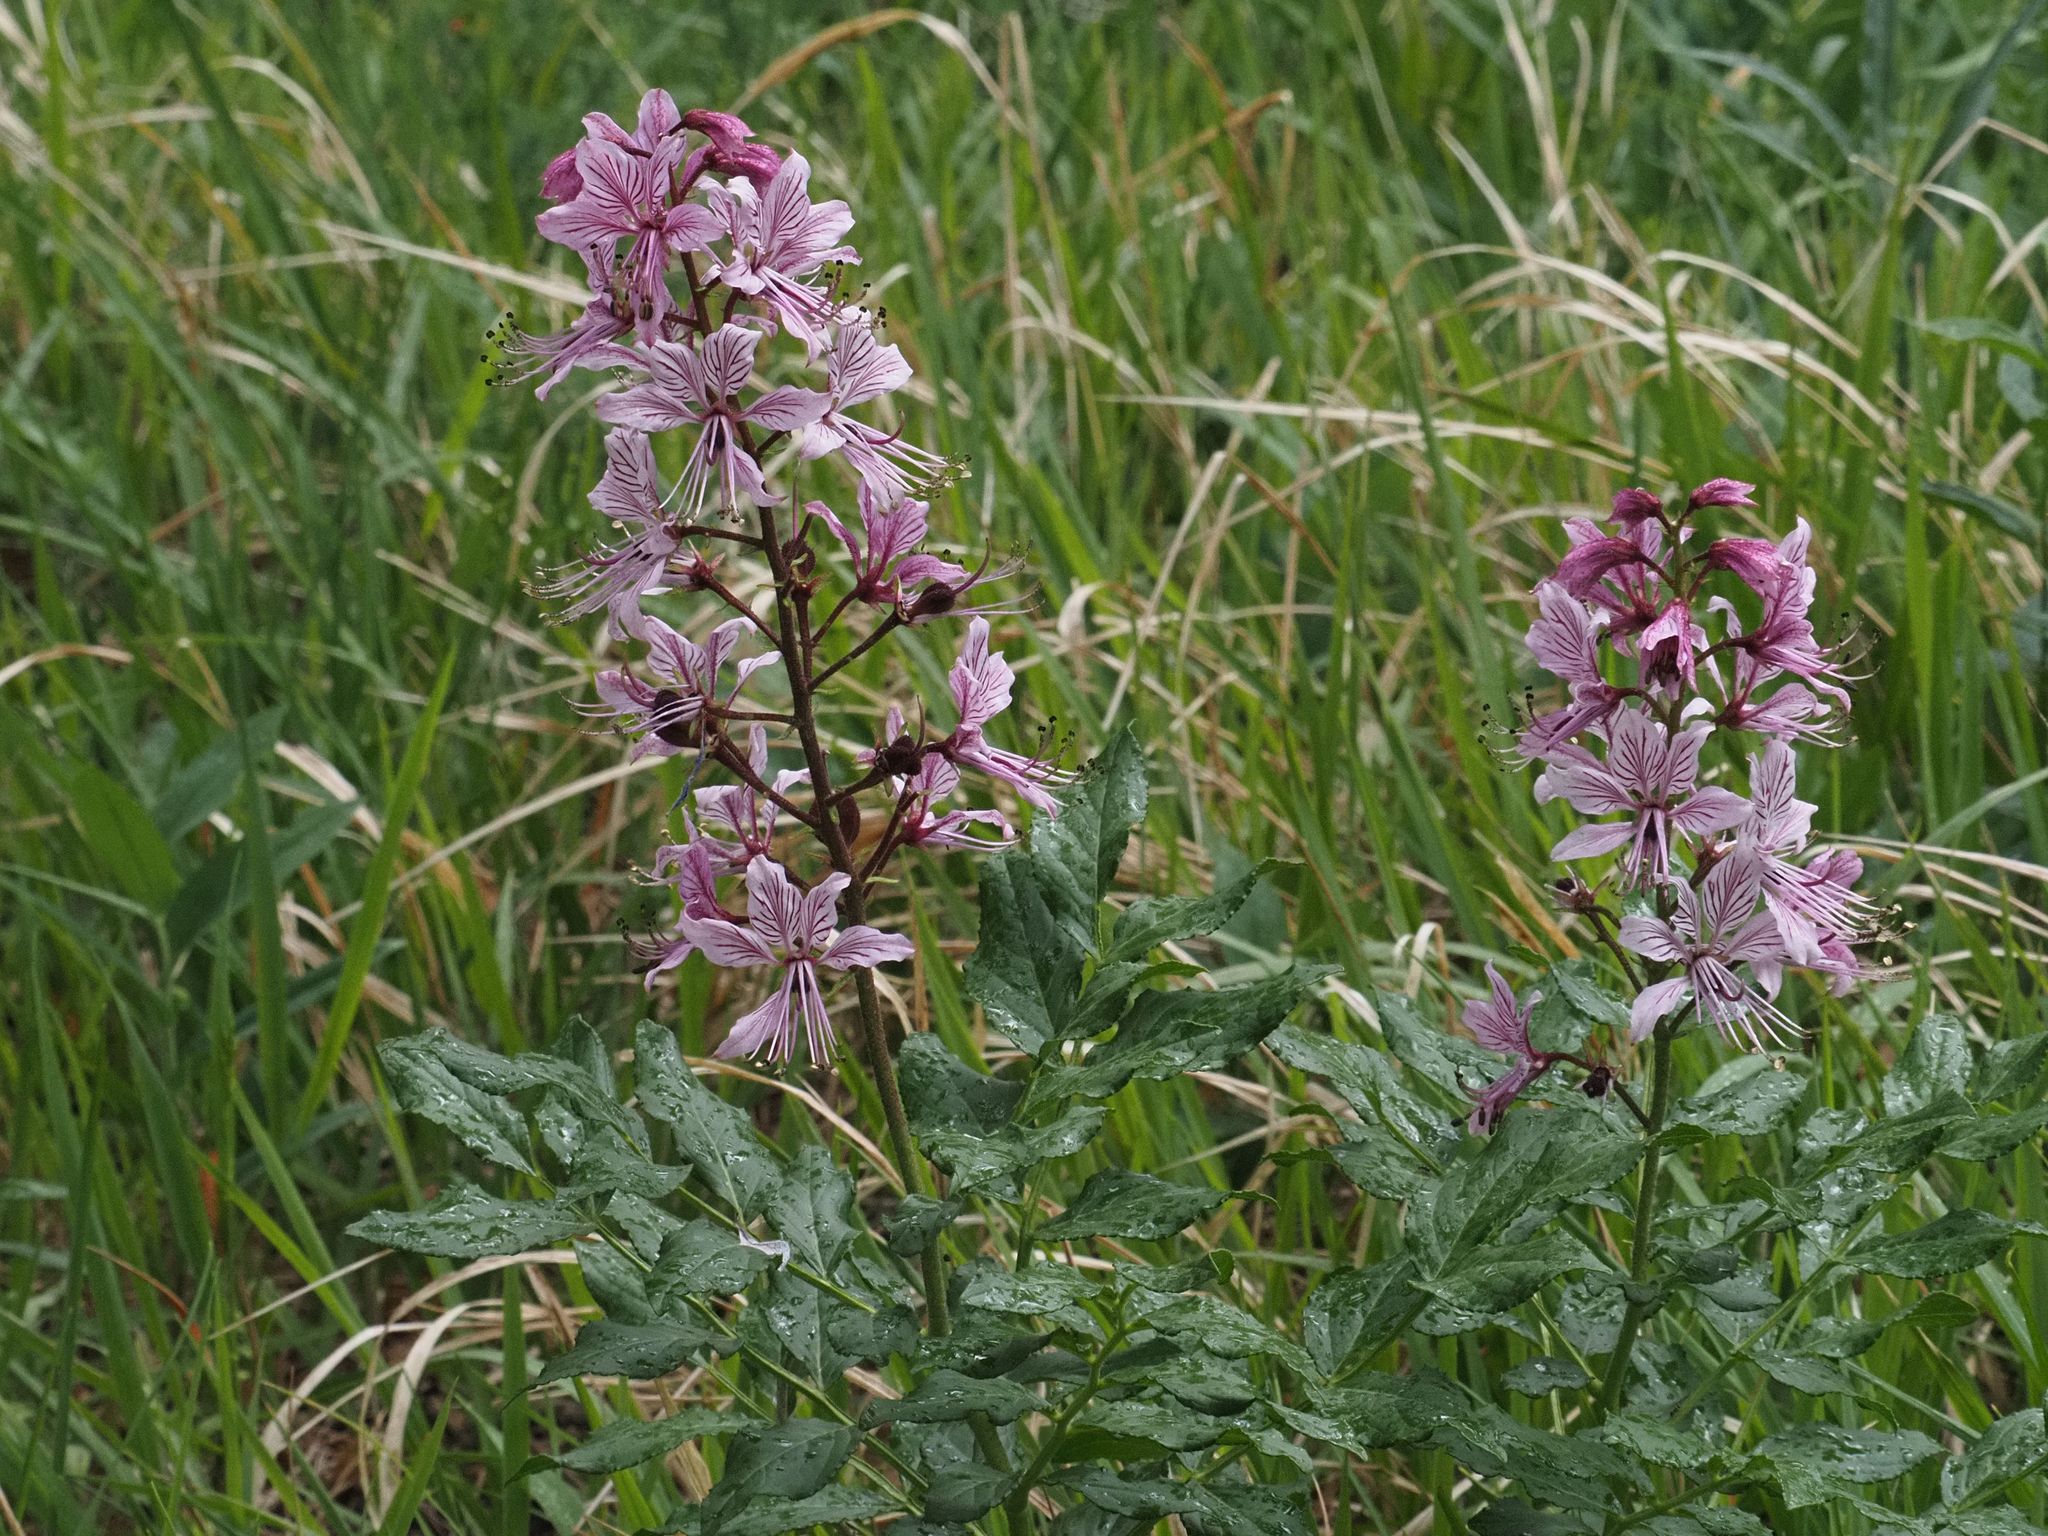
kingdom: Plantae
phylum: Tracheophyta
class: Magnoliopsida
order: Sapindales
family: Rutaceae
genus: Dictamnus
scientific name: Dictamnus albus
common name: Gasplant
